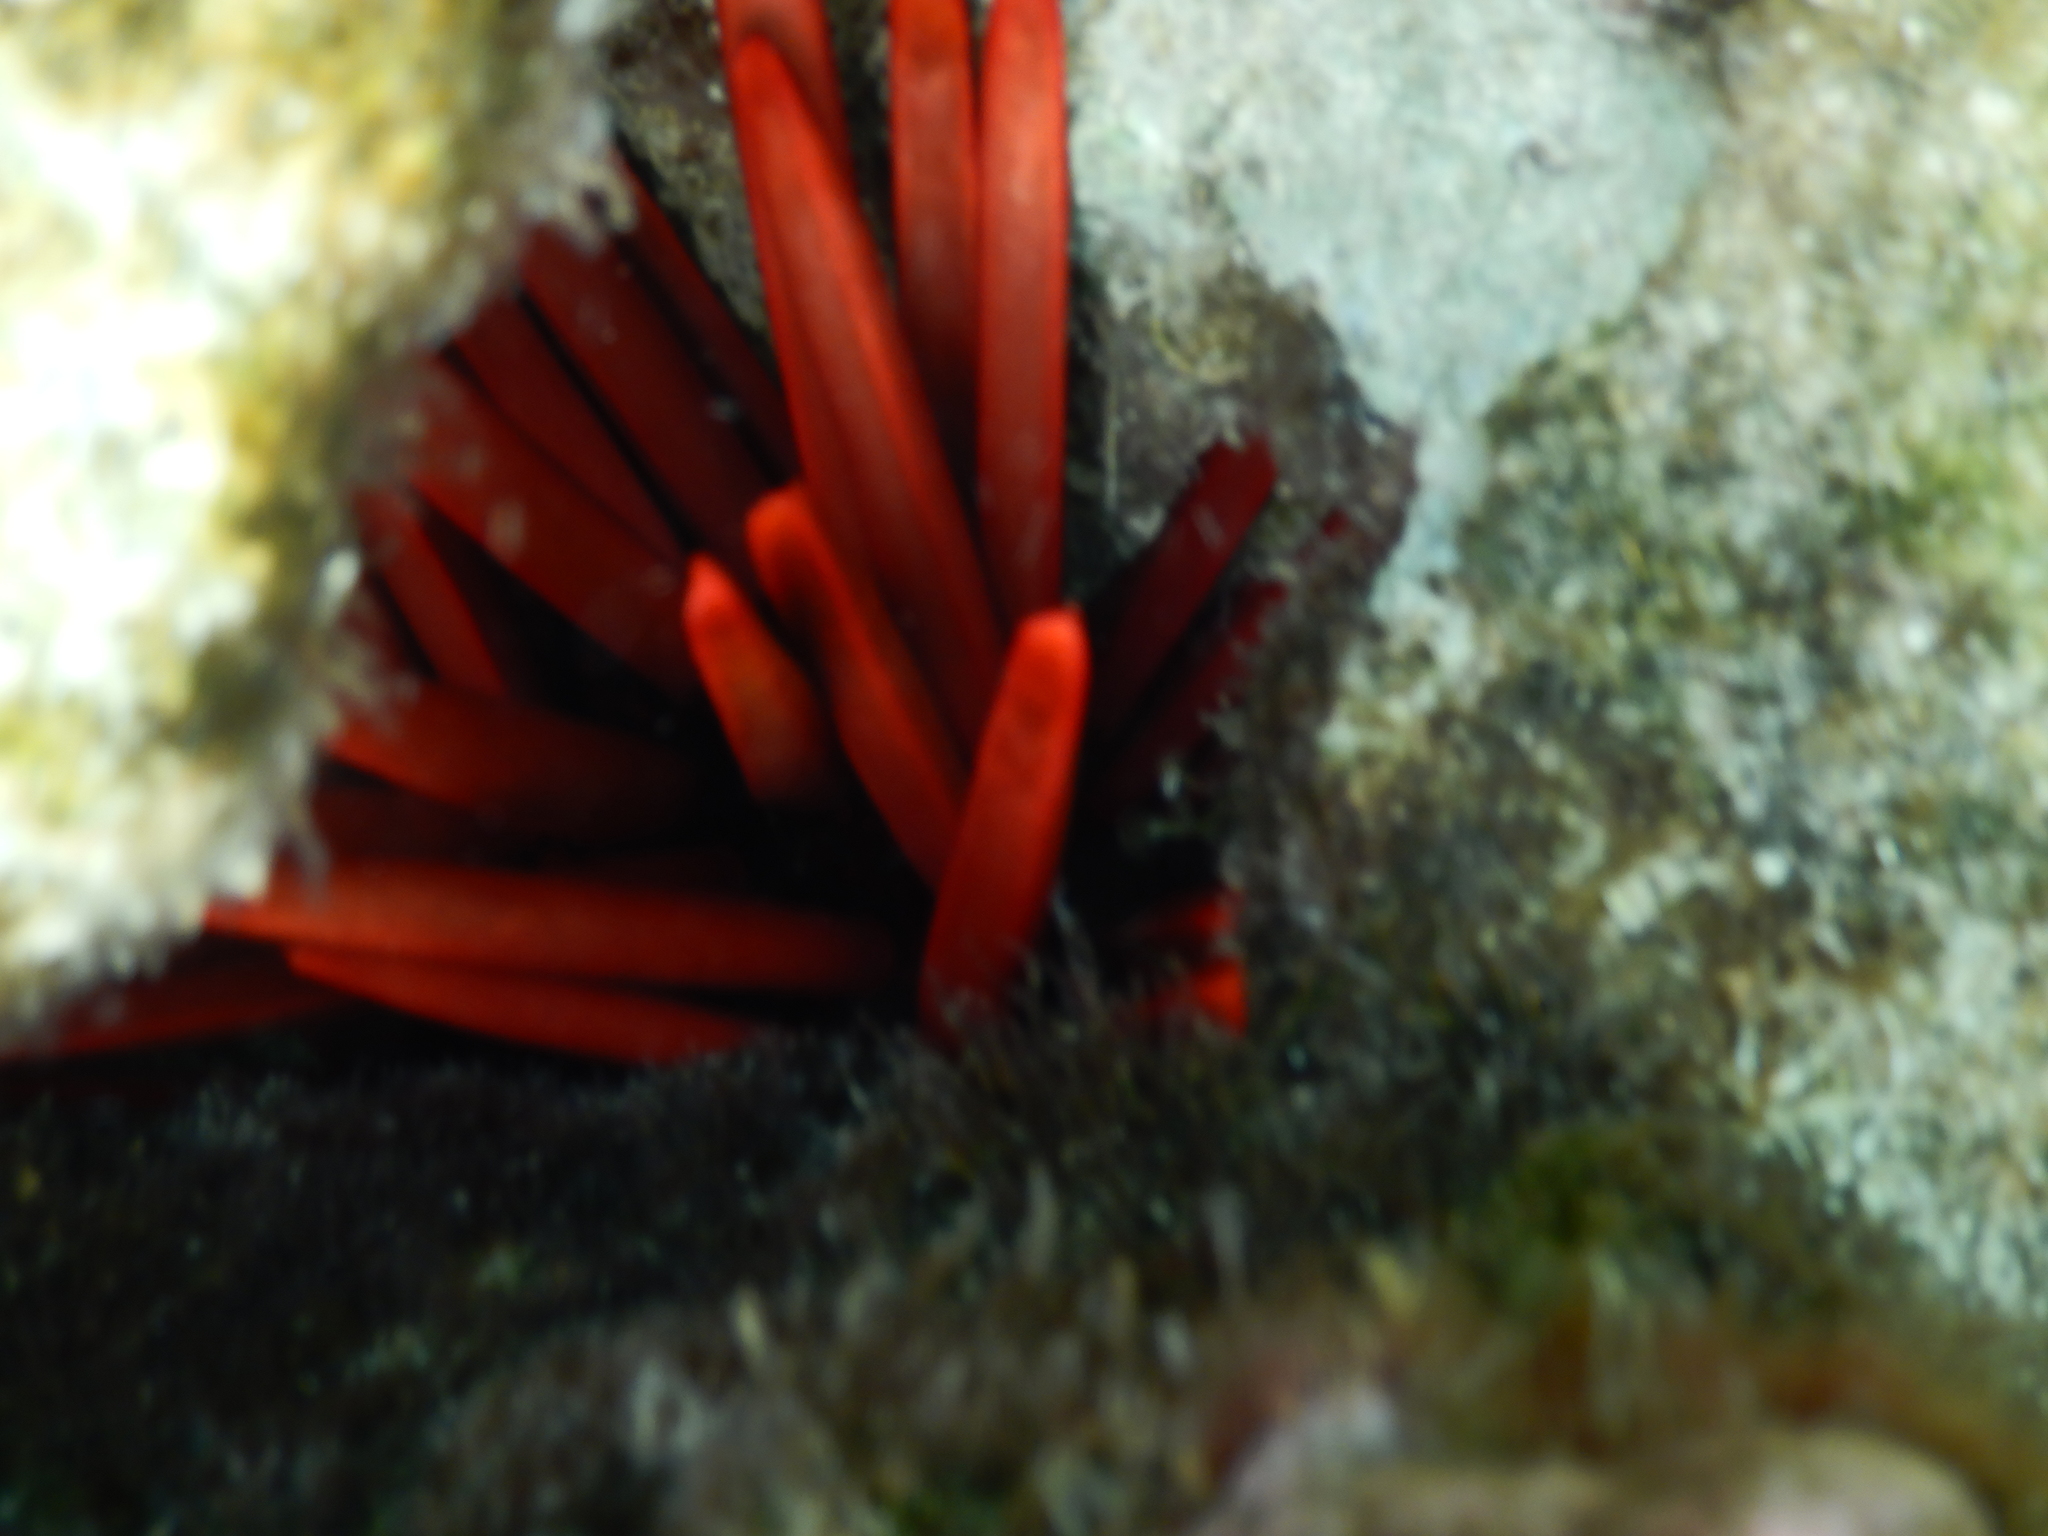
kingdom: Animalia
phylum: Echinodermata
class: Echinoidea
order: Camarodonta
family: Echinometridae
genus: Heterocentrotus
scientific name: Heterocentrotus mamillatus
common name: Slate pencil urchin
